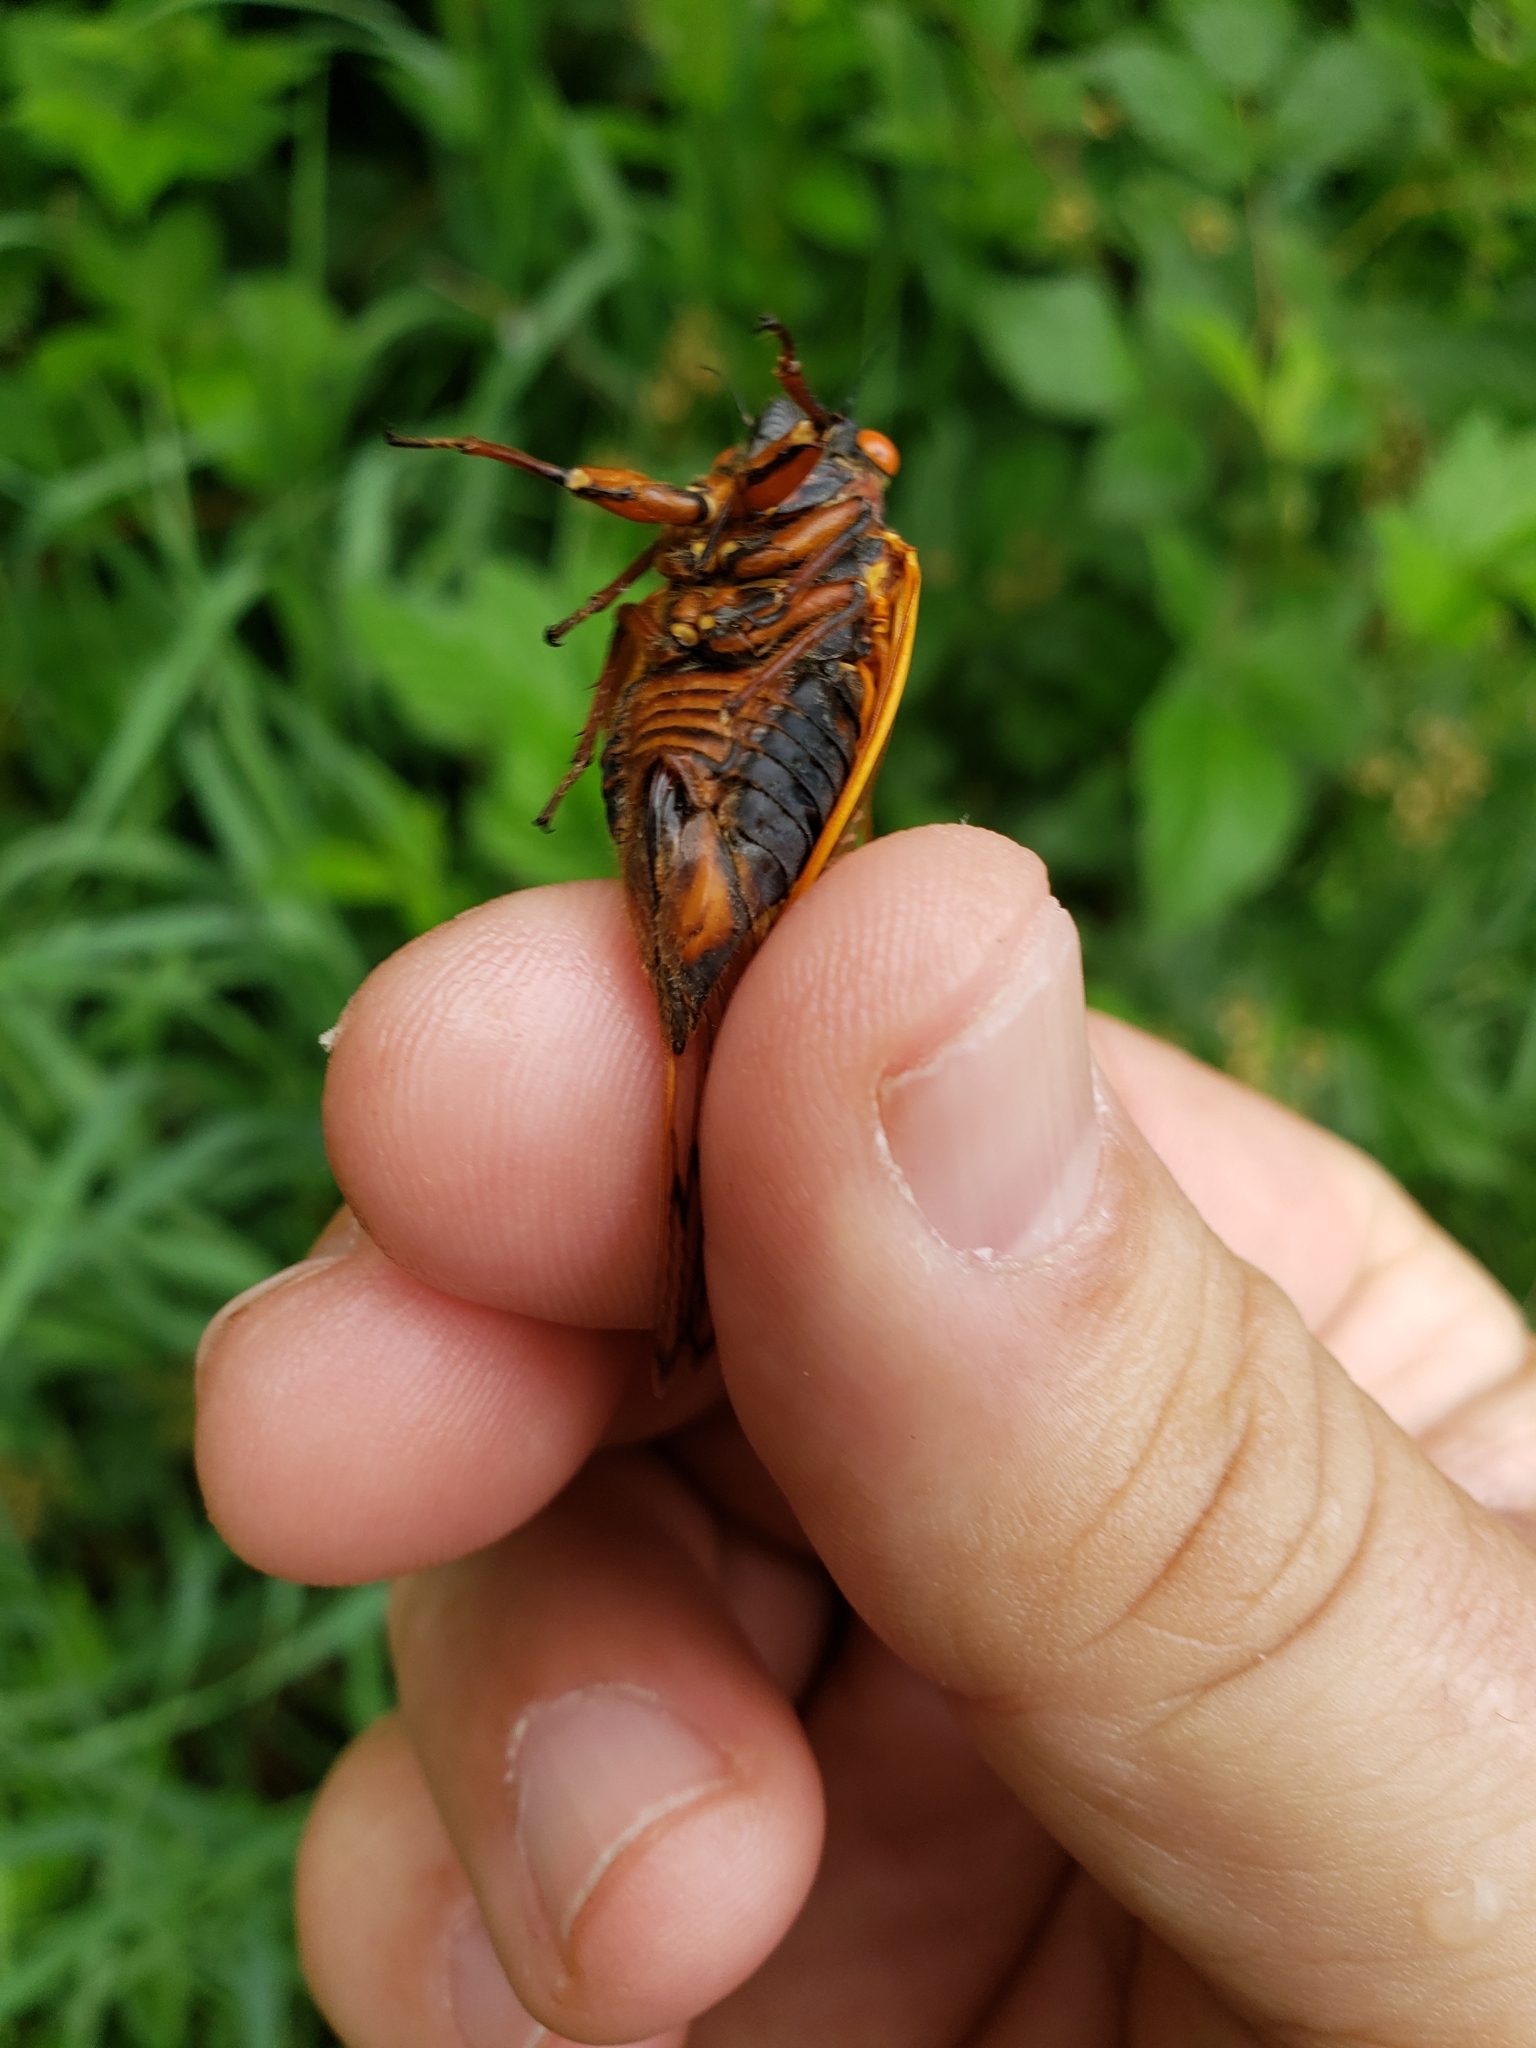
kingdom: Animalia
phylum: Arthropoda
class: Insecta
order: Hemiptera
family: Cicadidae
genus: Magicicada
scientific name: Magicicada septendecim
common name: Periodical cicada
